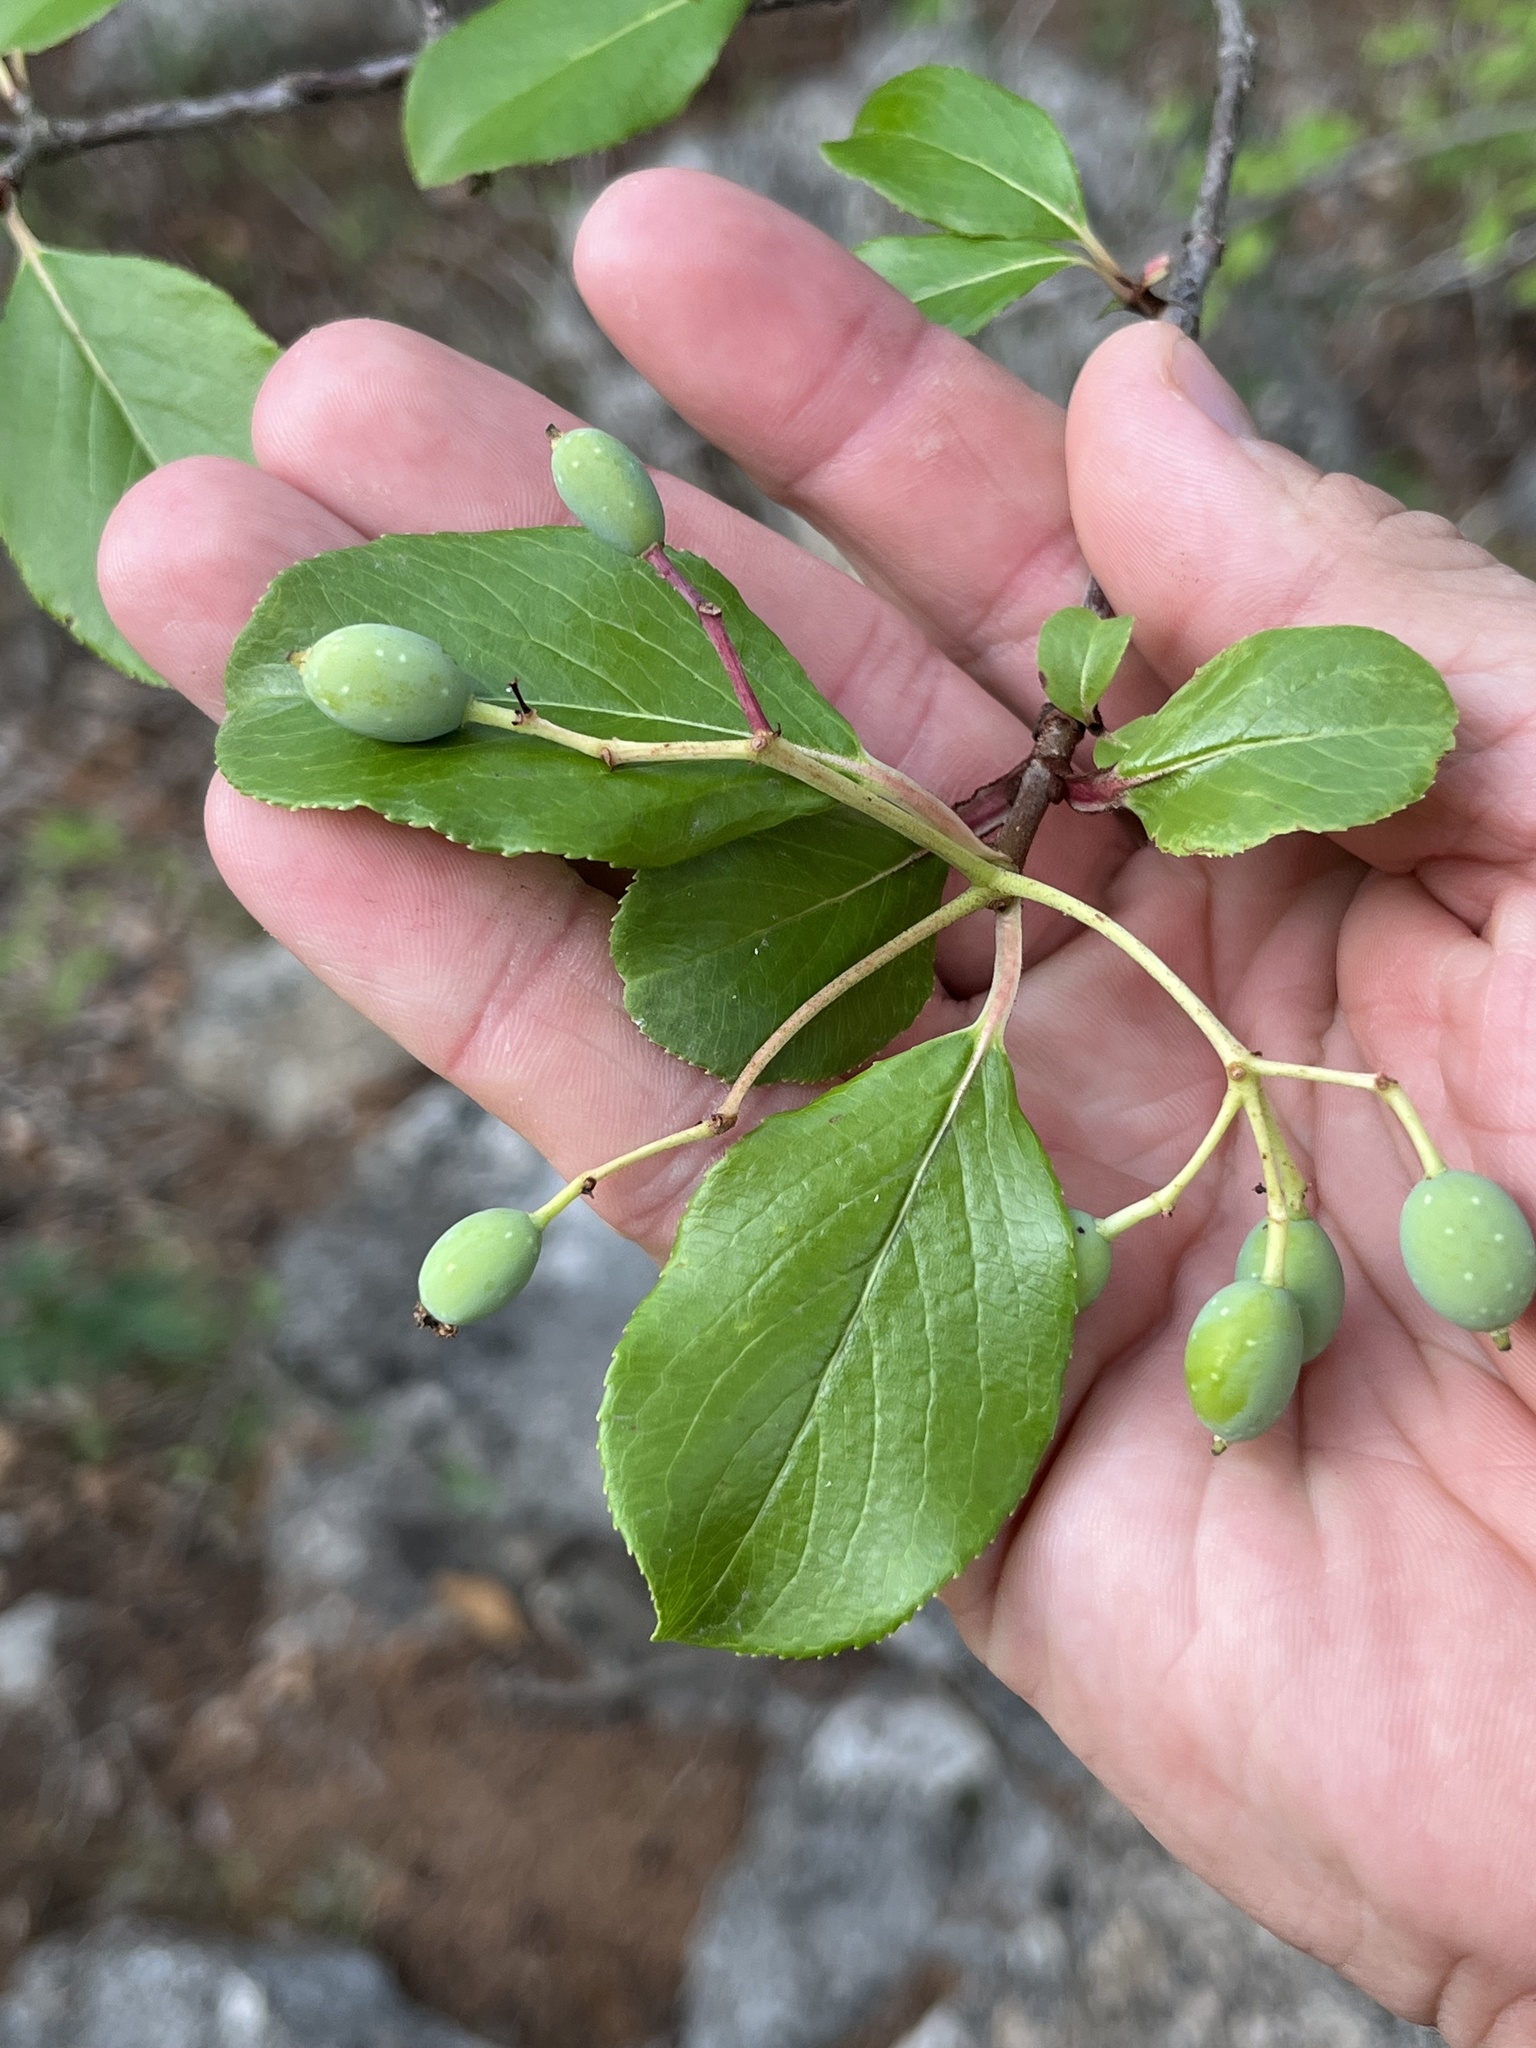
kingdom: Plantae
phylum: Tracheophyta
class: Magnoliopsida
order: Dipsacales
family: Viburnaceae
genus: Viburnum
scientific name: Viburnum rufidulum
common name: Blue haw
